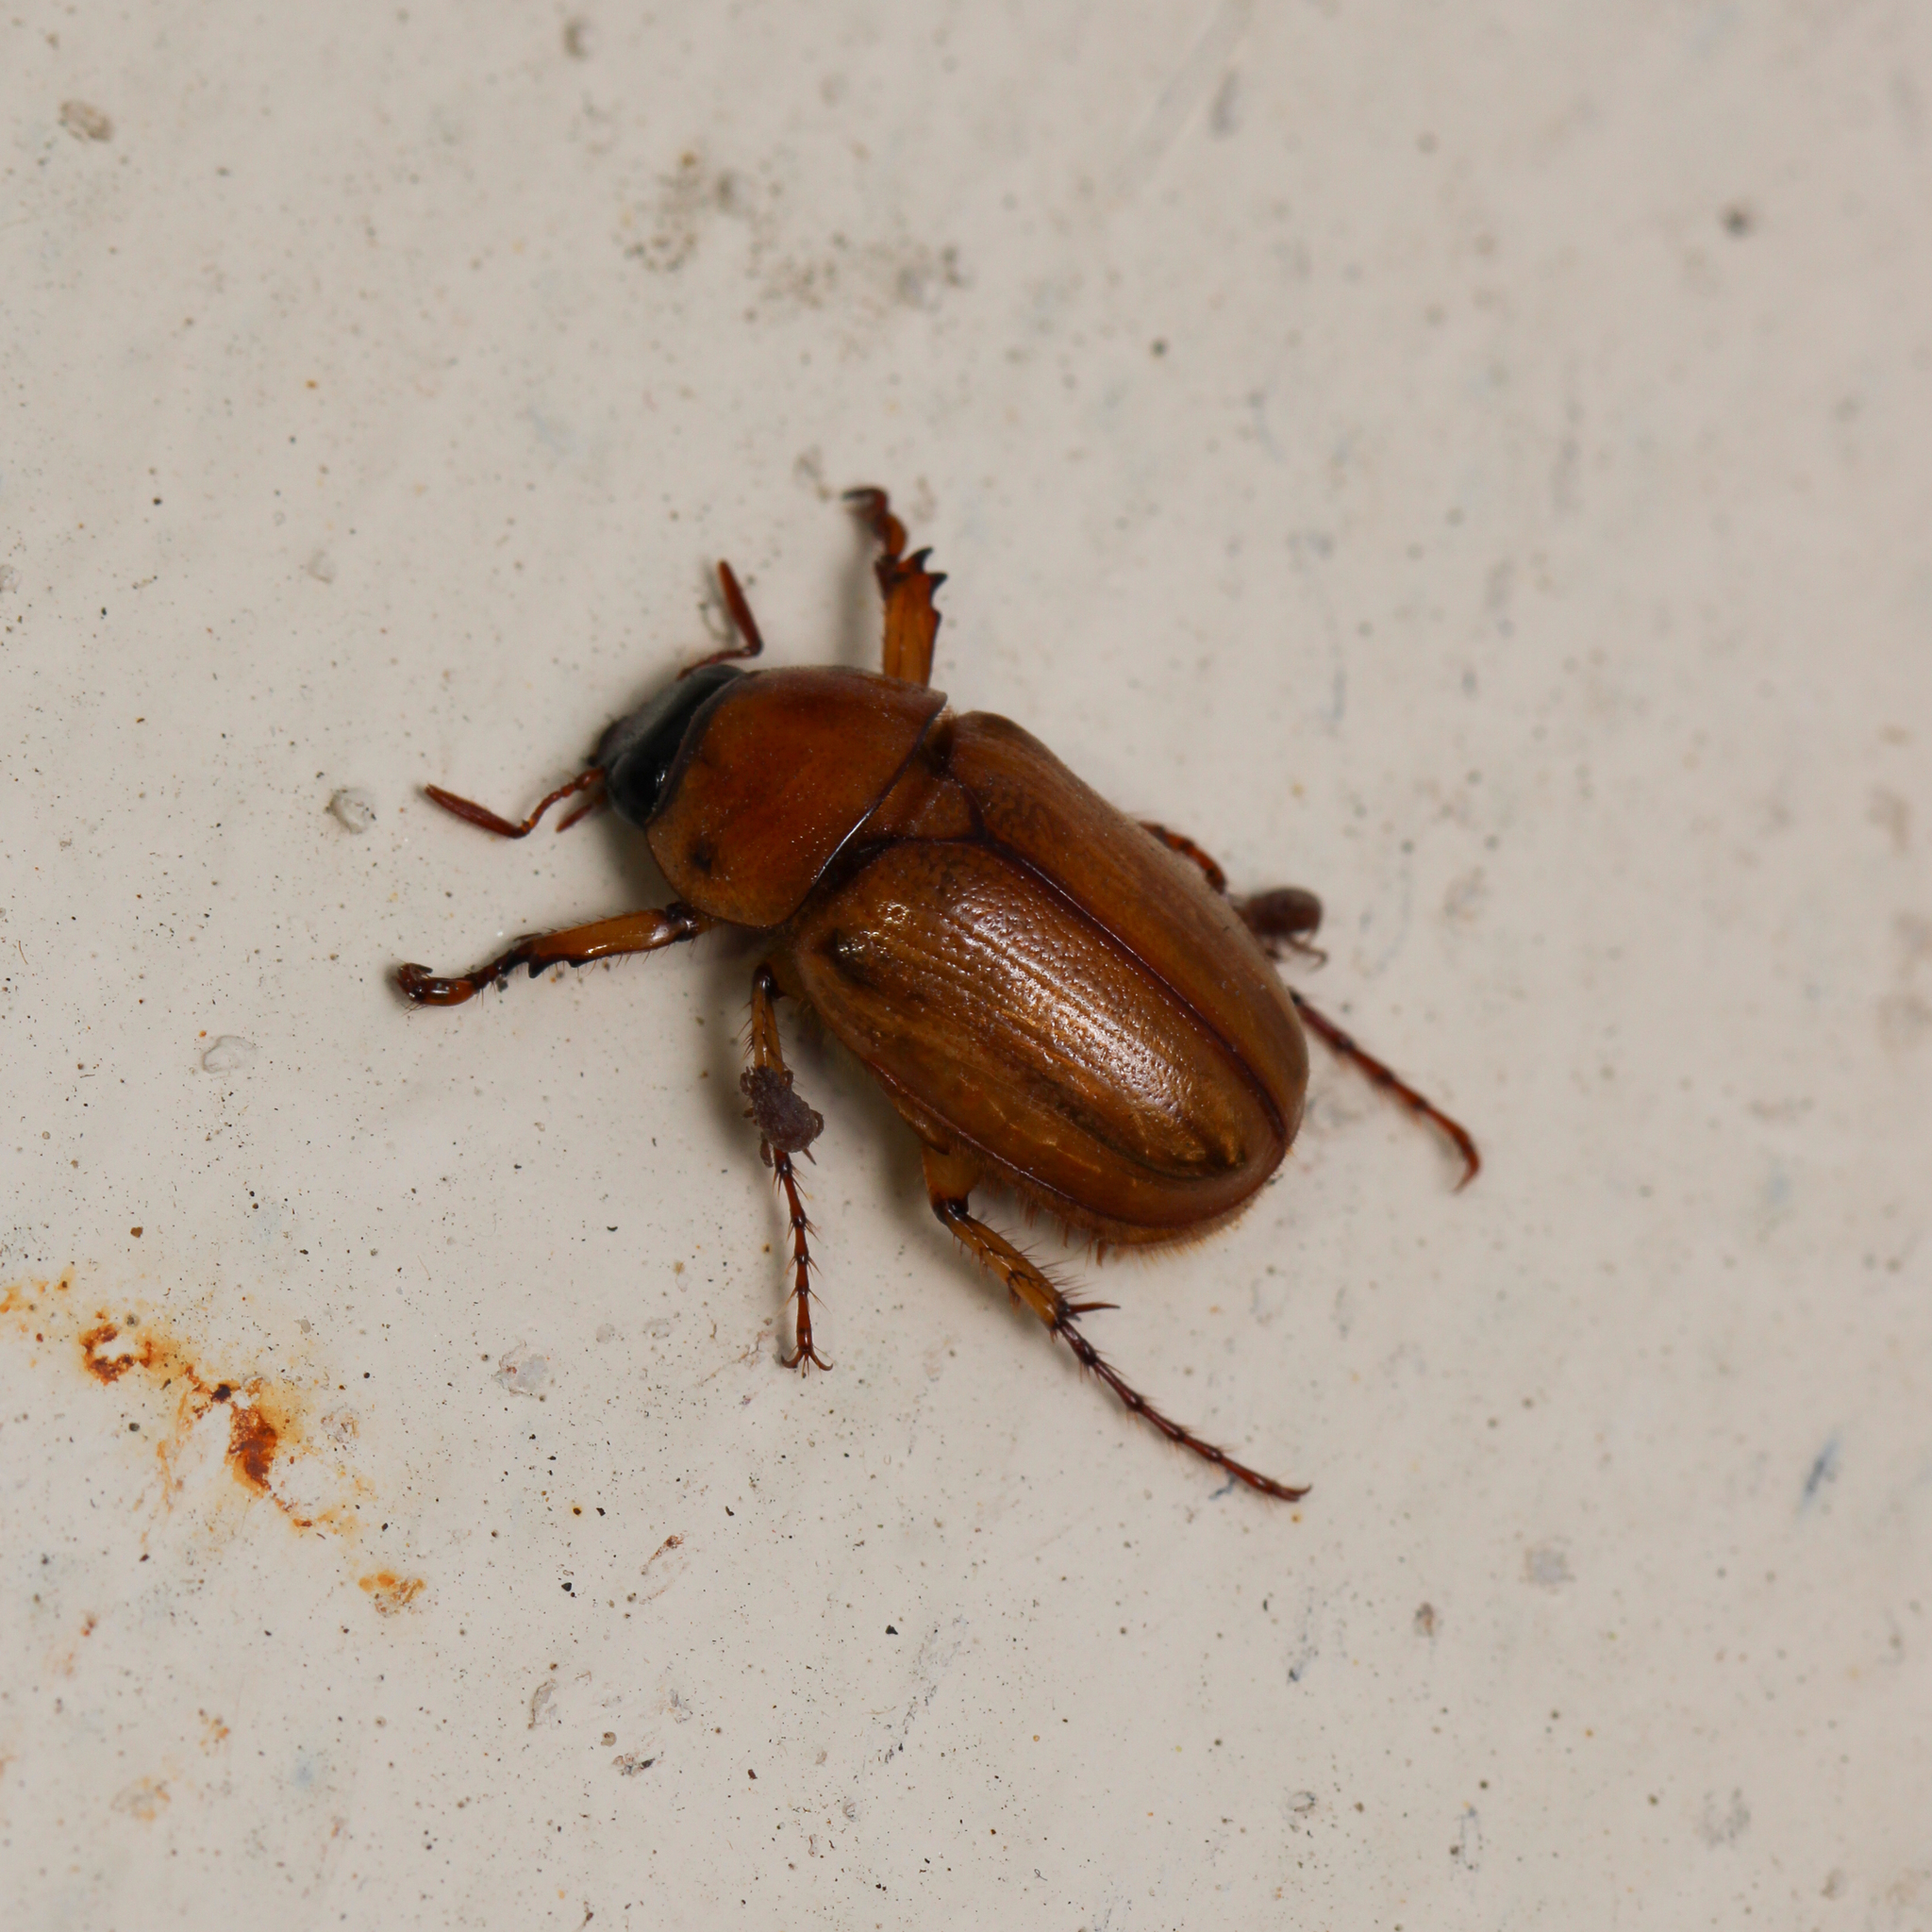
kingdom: Animalia
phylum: Arthropoda
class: Insecta
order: Coleoptera
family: Scarabaeidae
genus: Cyclocephala
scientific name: Cyclocephala lurida
